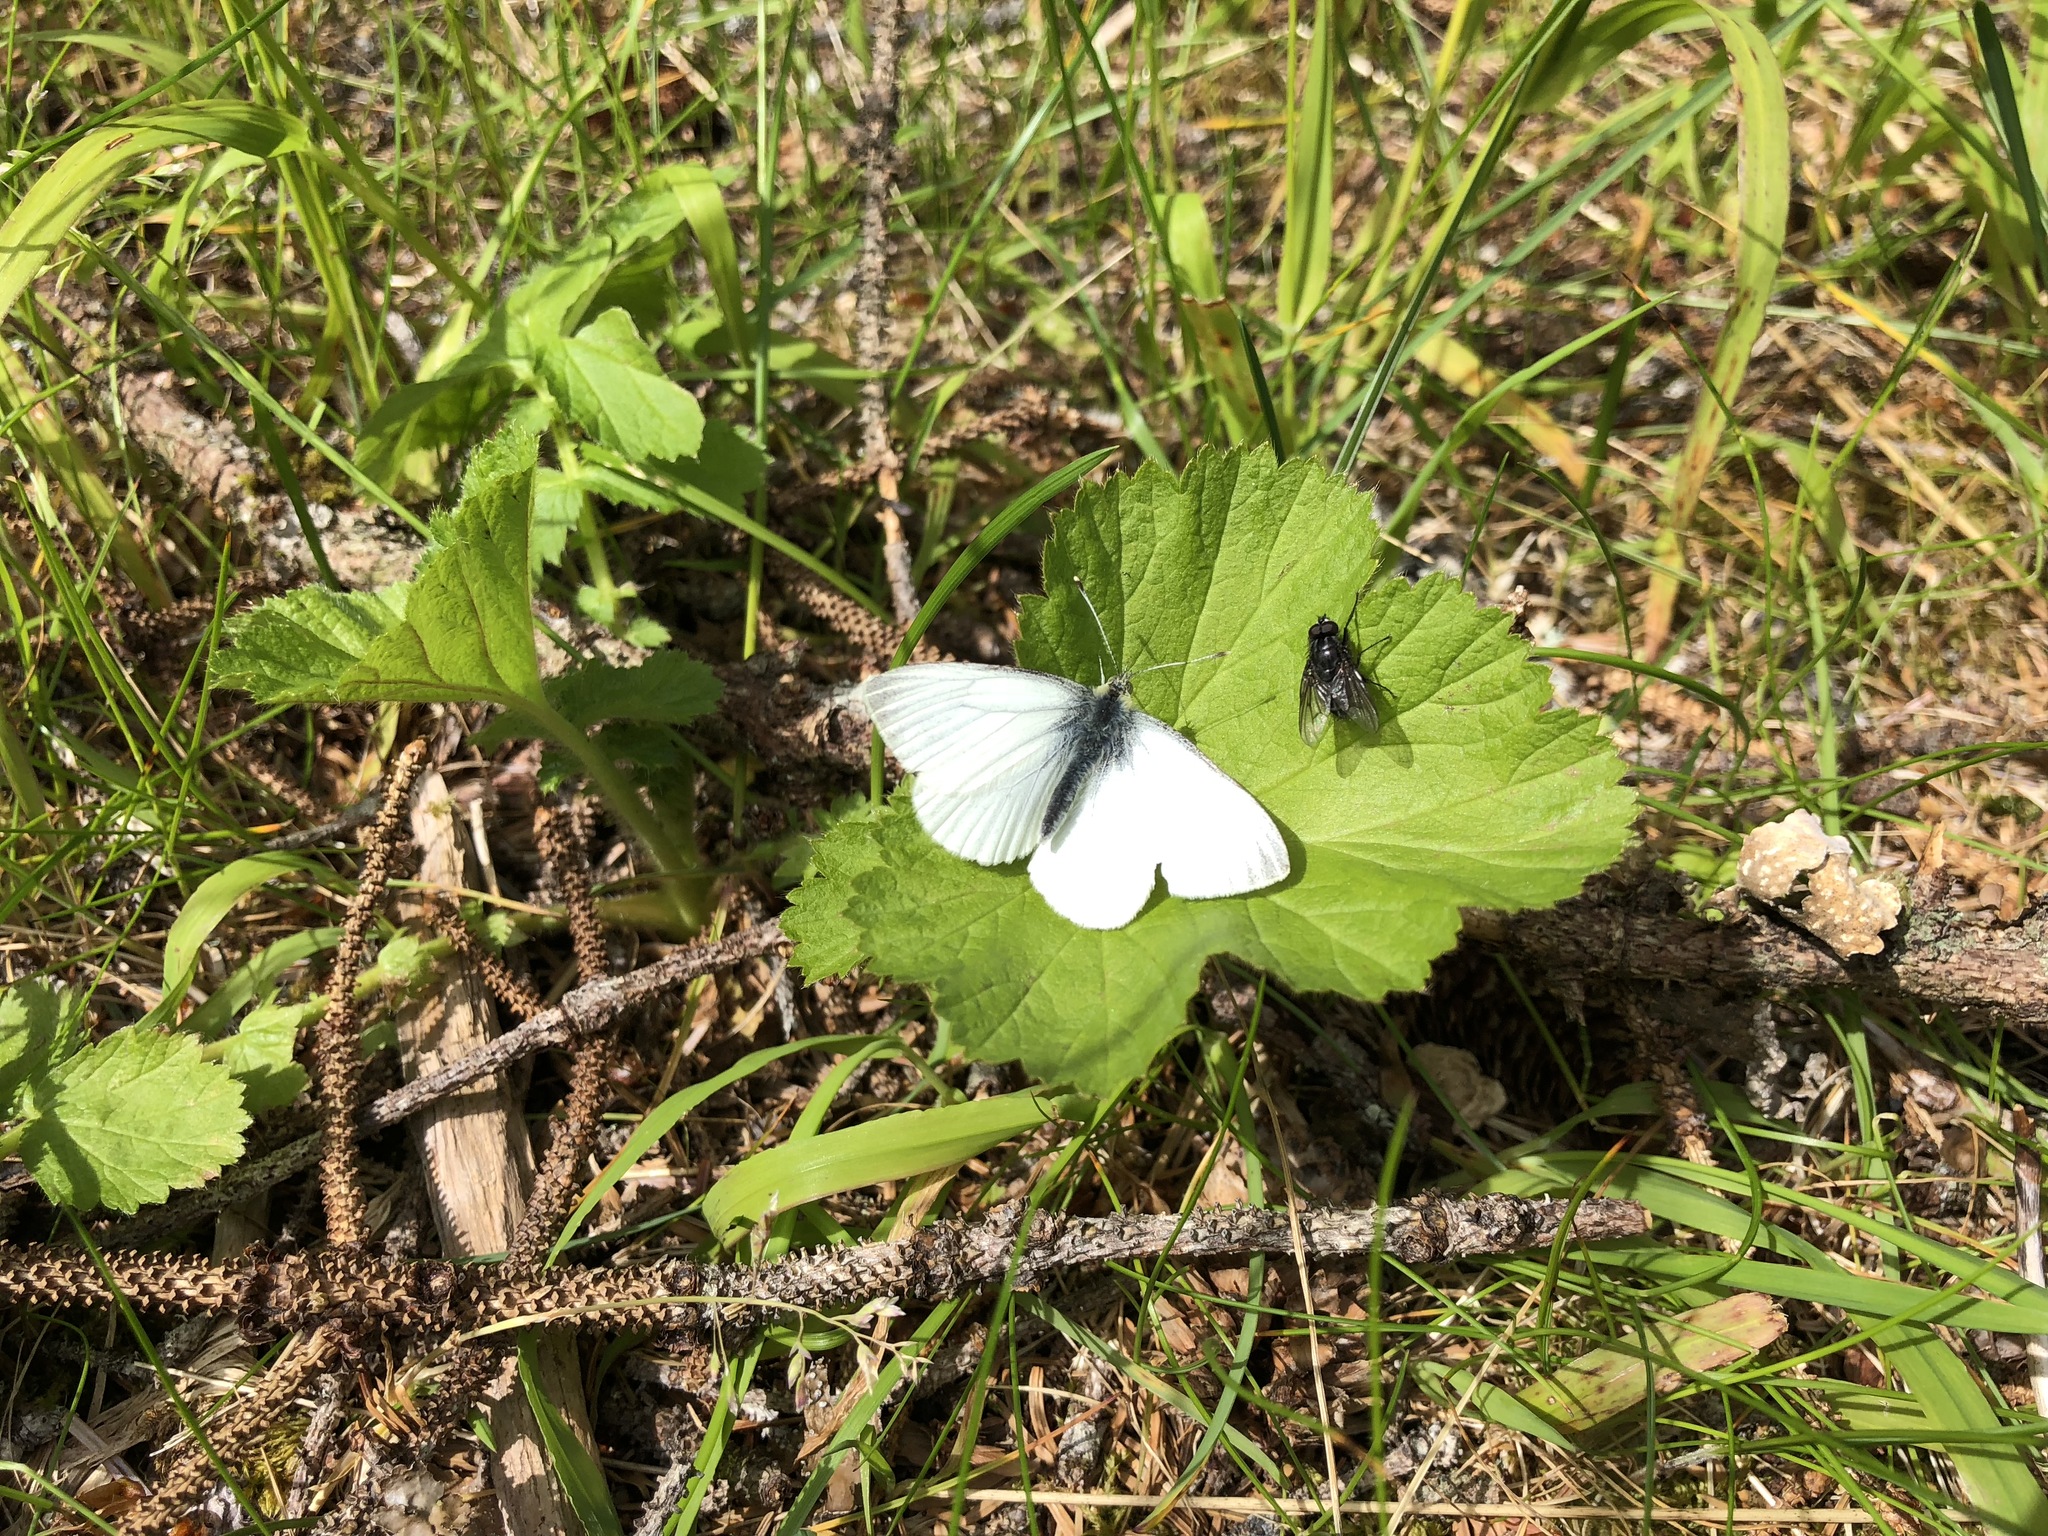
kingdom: Animalia
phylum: Arthropoda
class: Insecta
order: Lepidoptera
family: Pieridae
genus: Pieris
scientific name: Pieris marginalis
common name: Margined white
